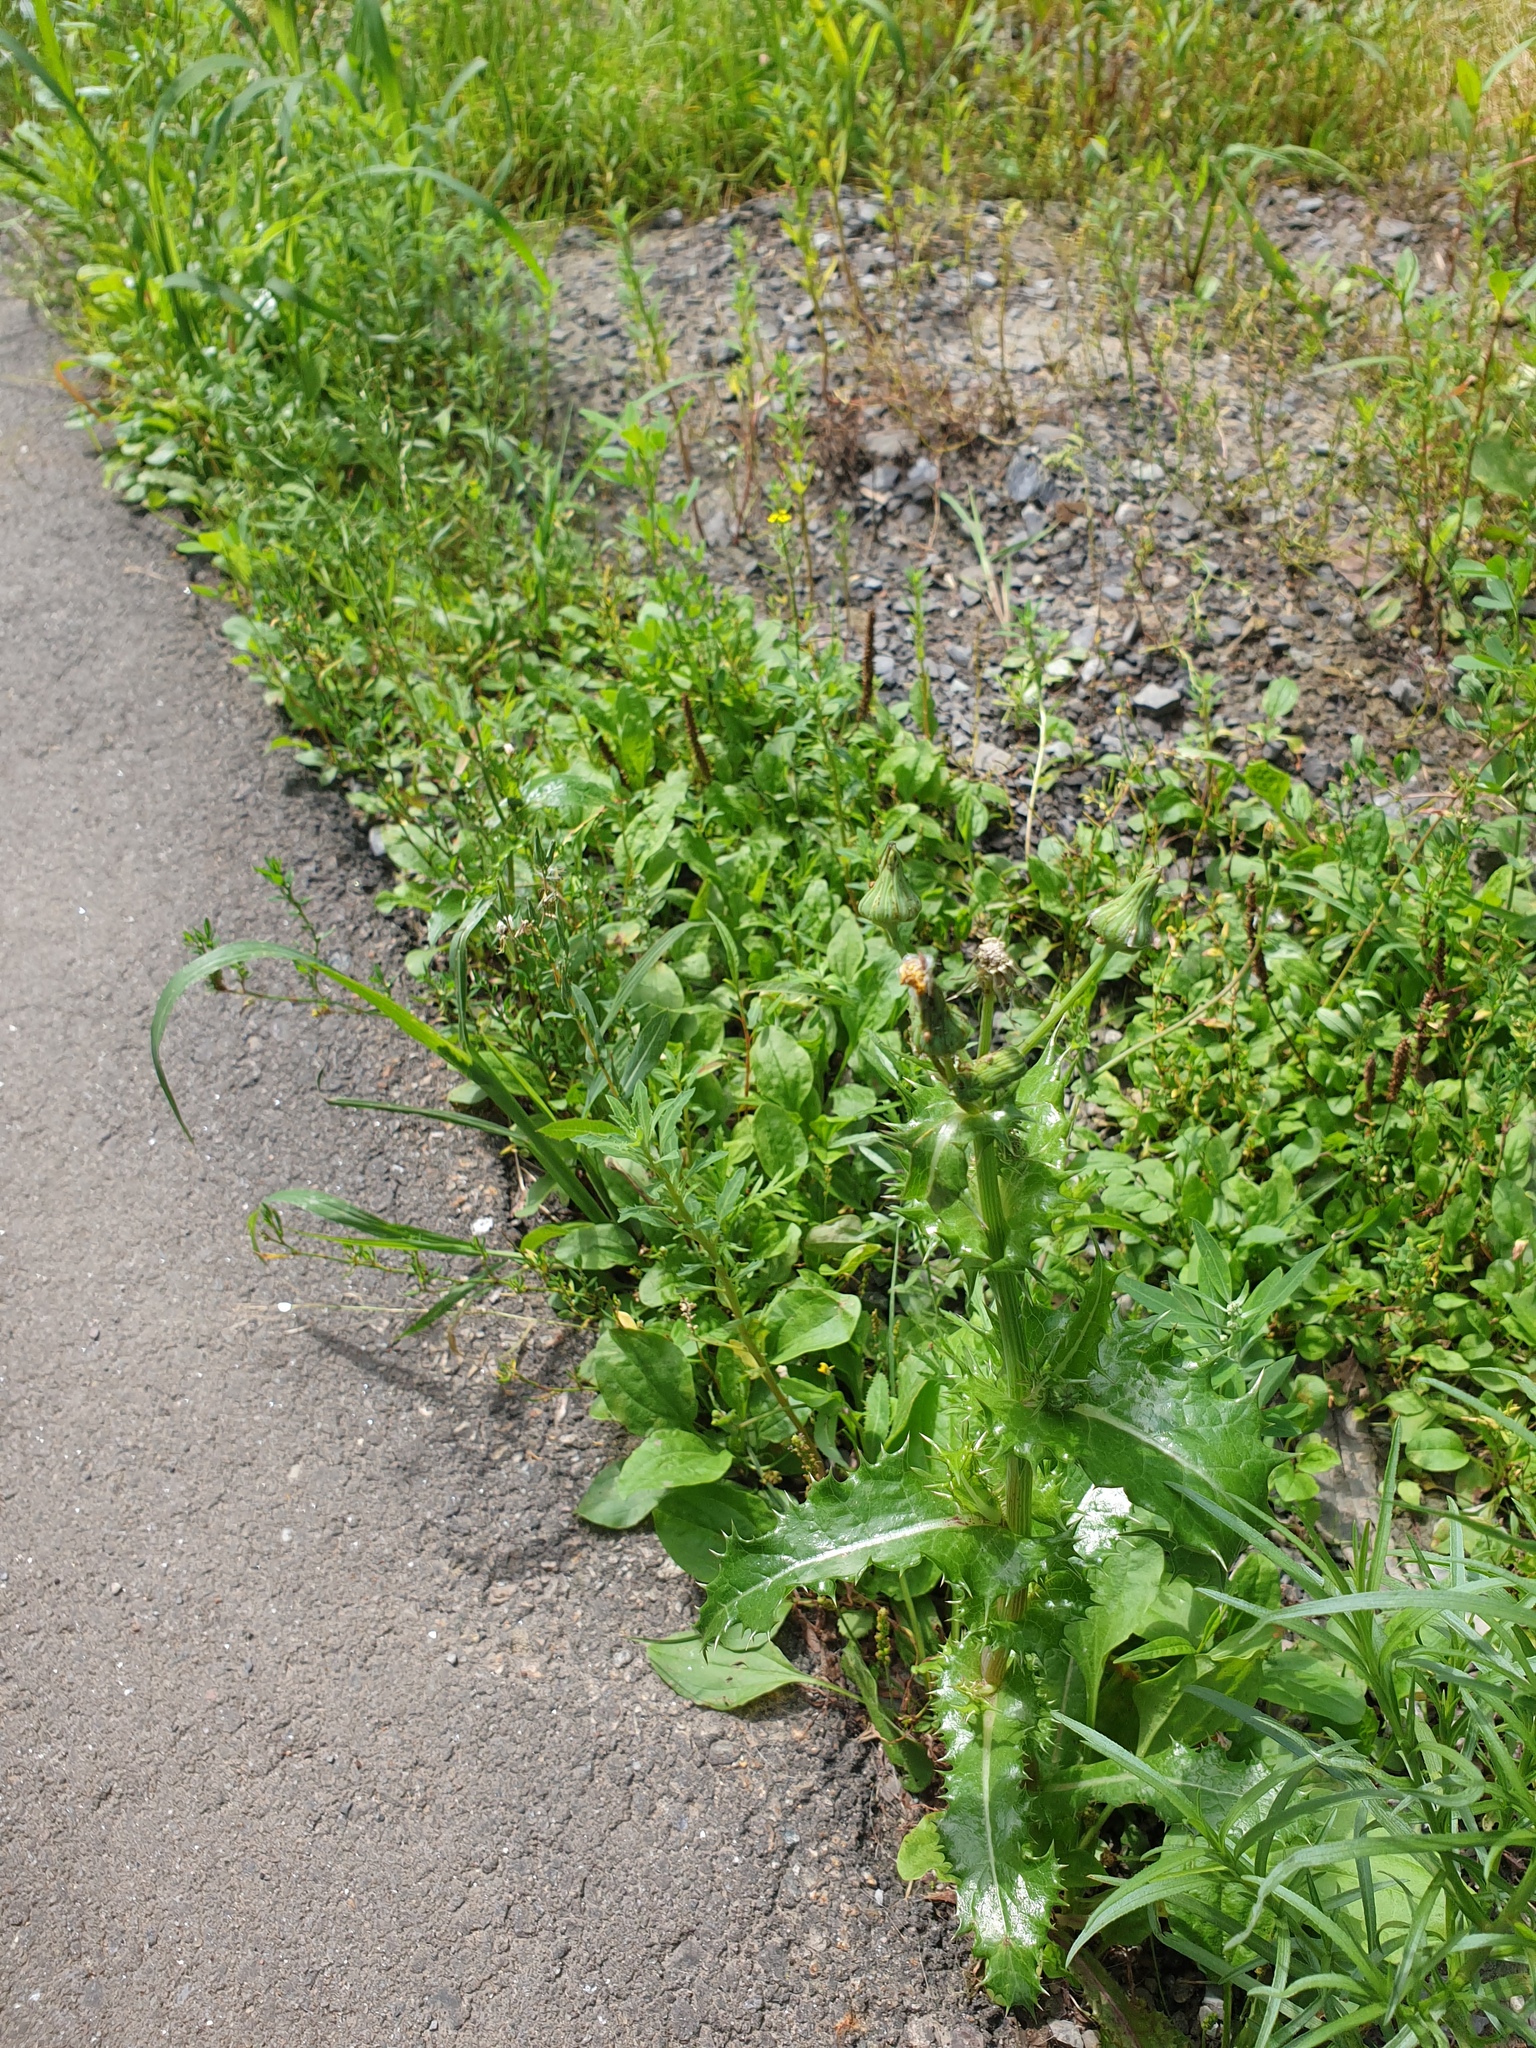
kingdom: Plantae
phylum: Tracheophyta
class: Magnoliopsida
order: Asterales
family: Asteraceae
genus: Sonchus
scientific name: Sonchus asper
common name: Prickly sow-thistle
